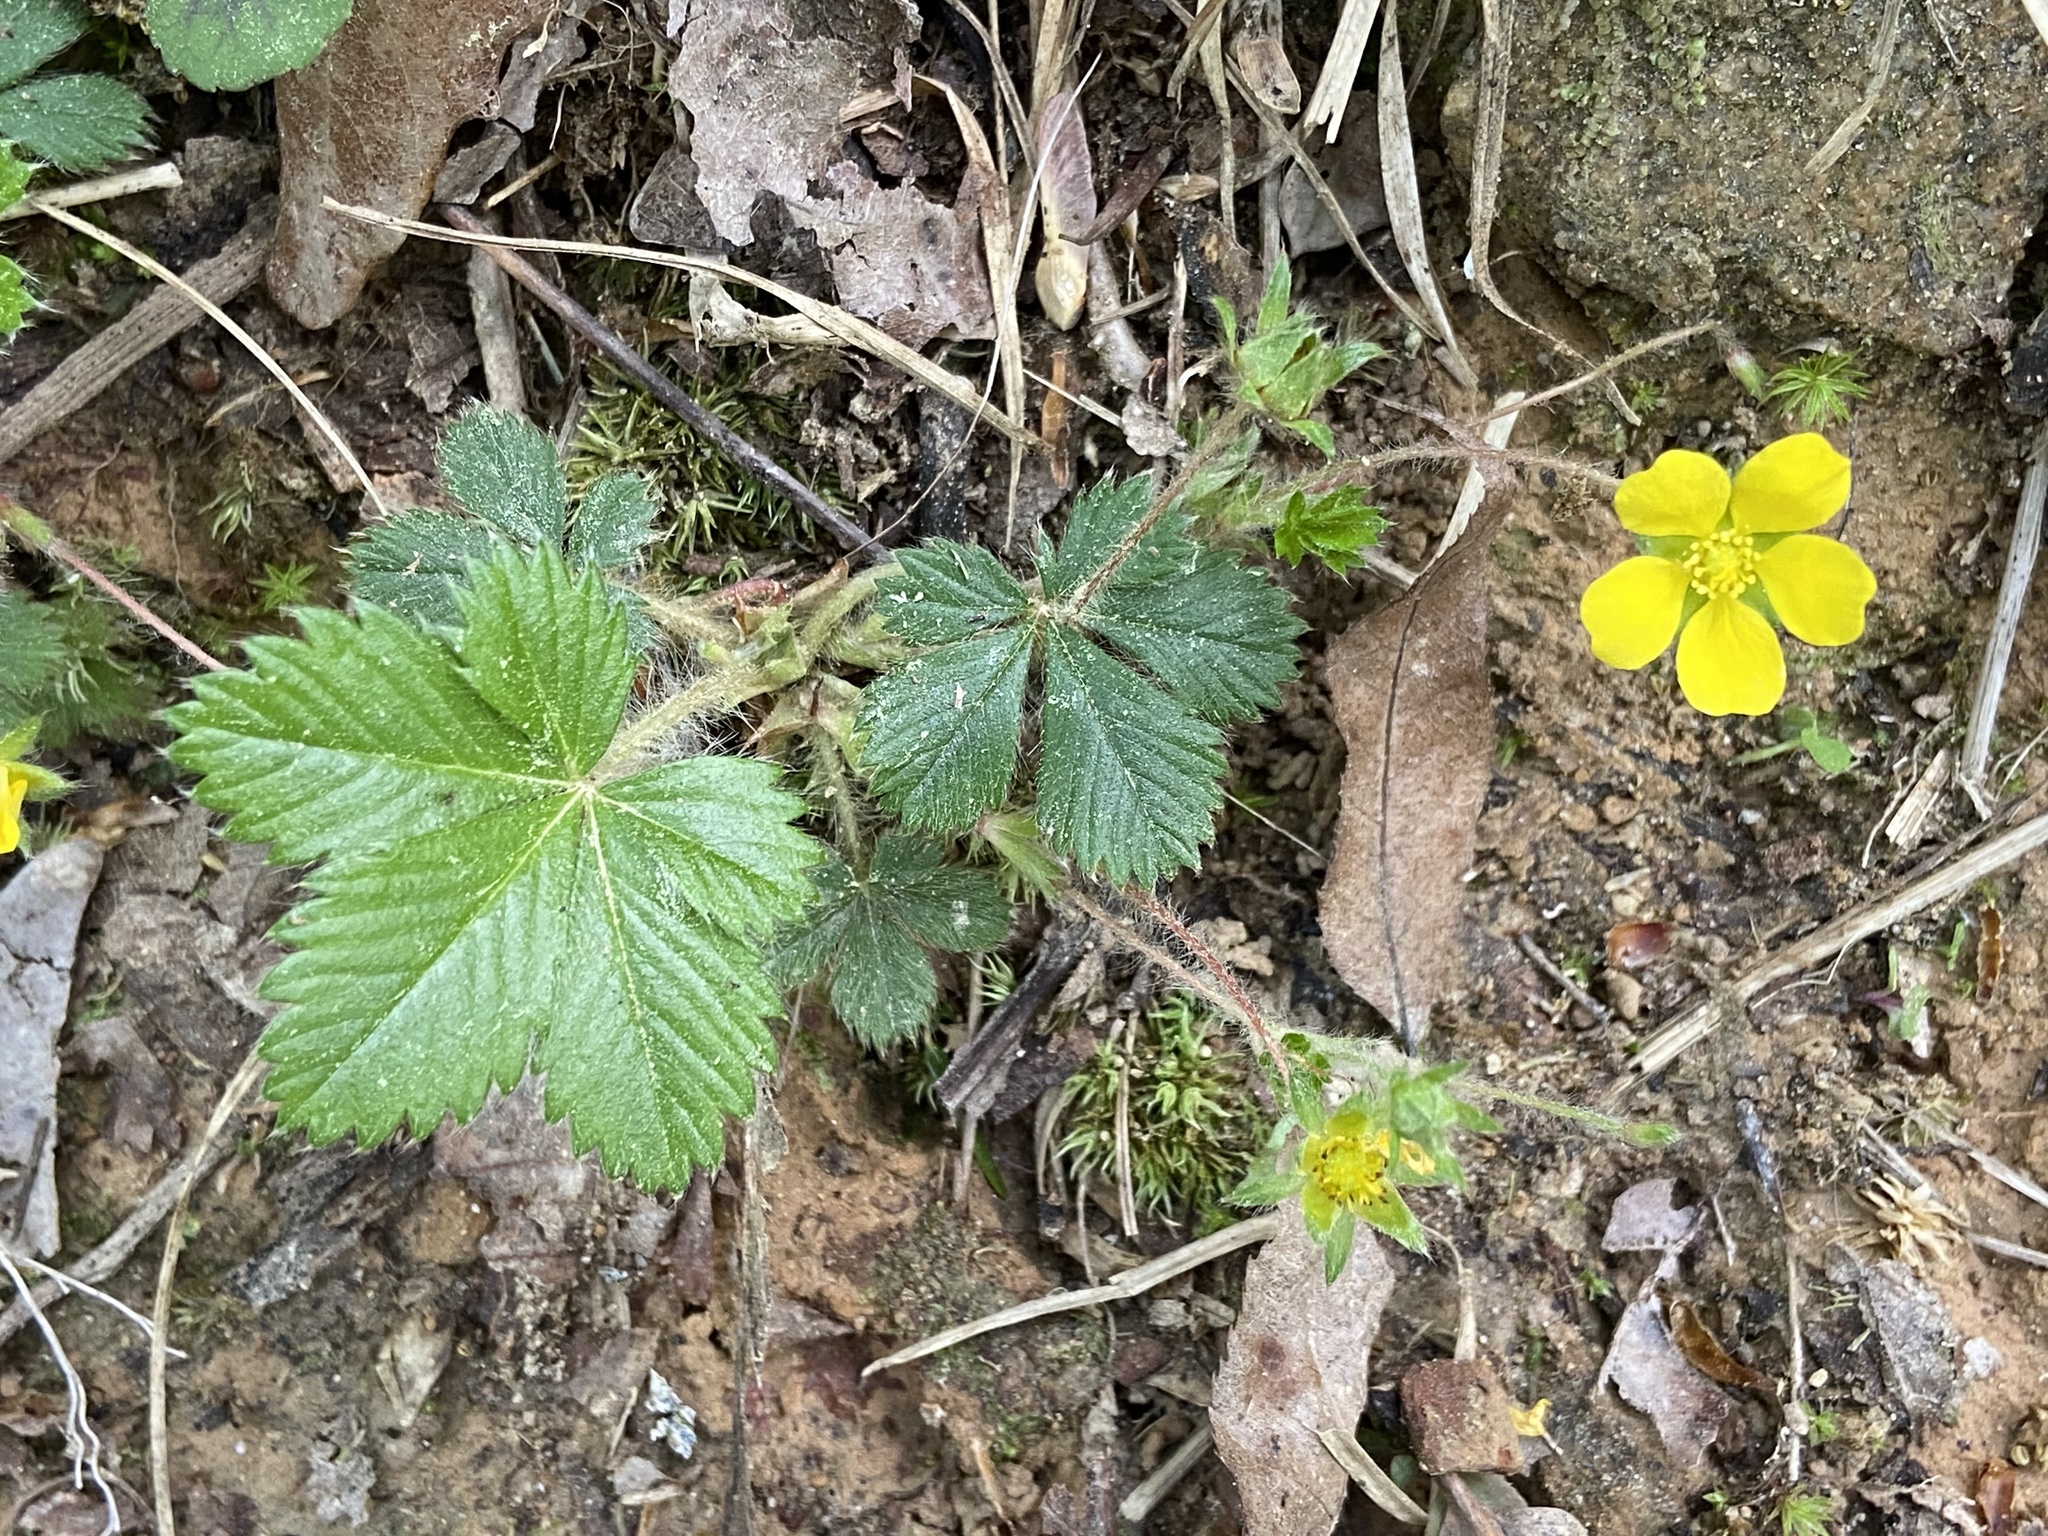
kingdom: Plantae
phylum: Tracheophyta
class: Magnoliopsida
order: Rosales
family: Rosaceae
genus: Potentilla
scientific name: Potentilla canadensis
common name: Canada cinquefoil
